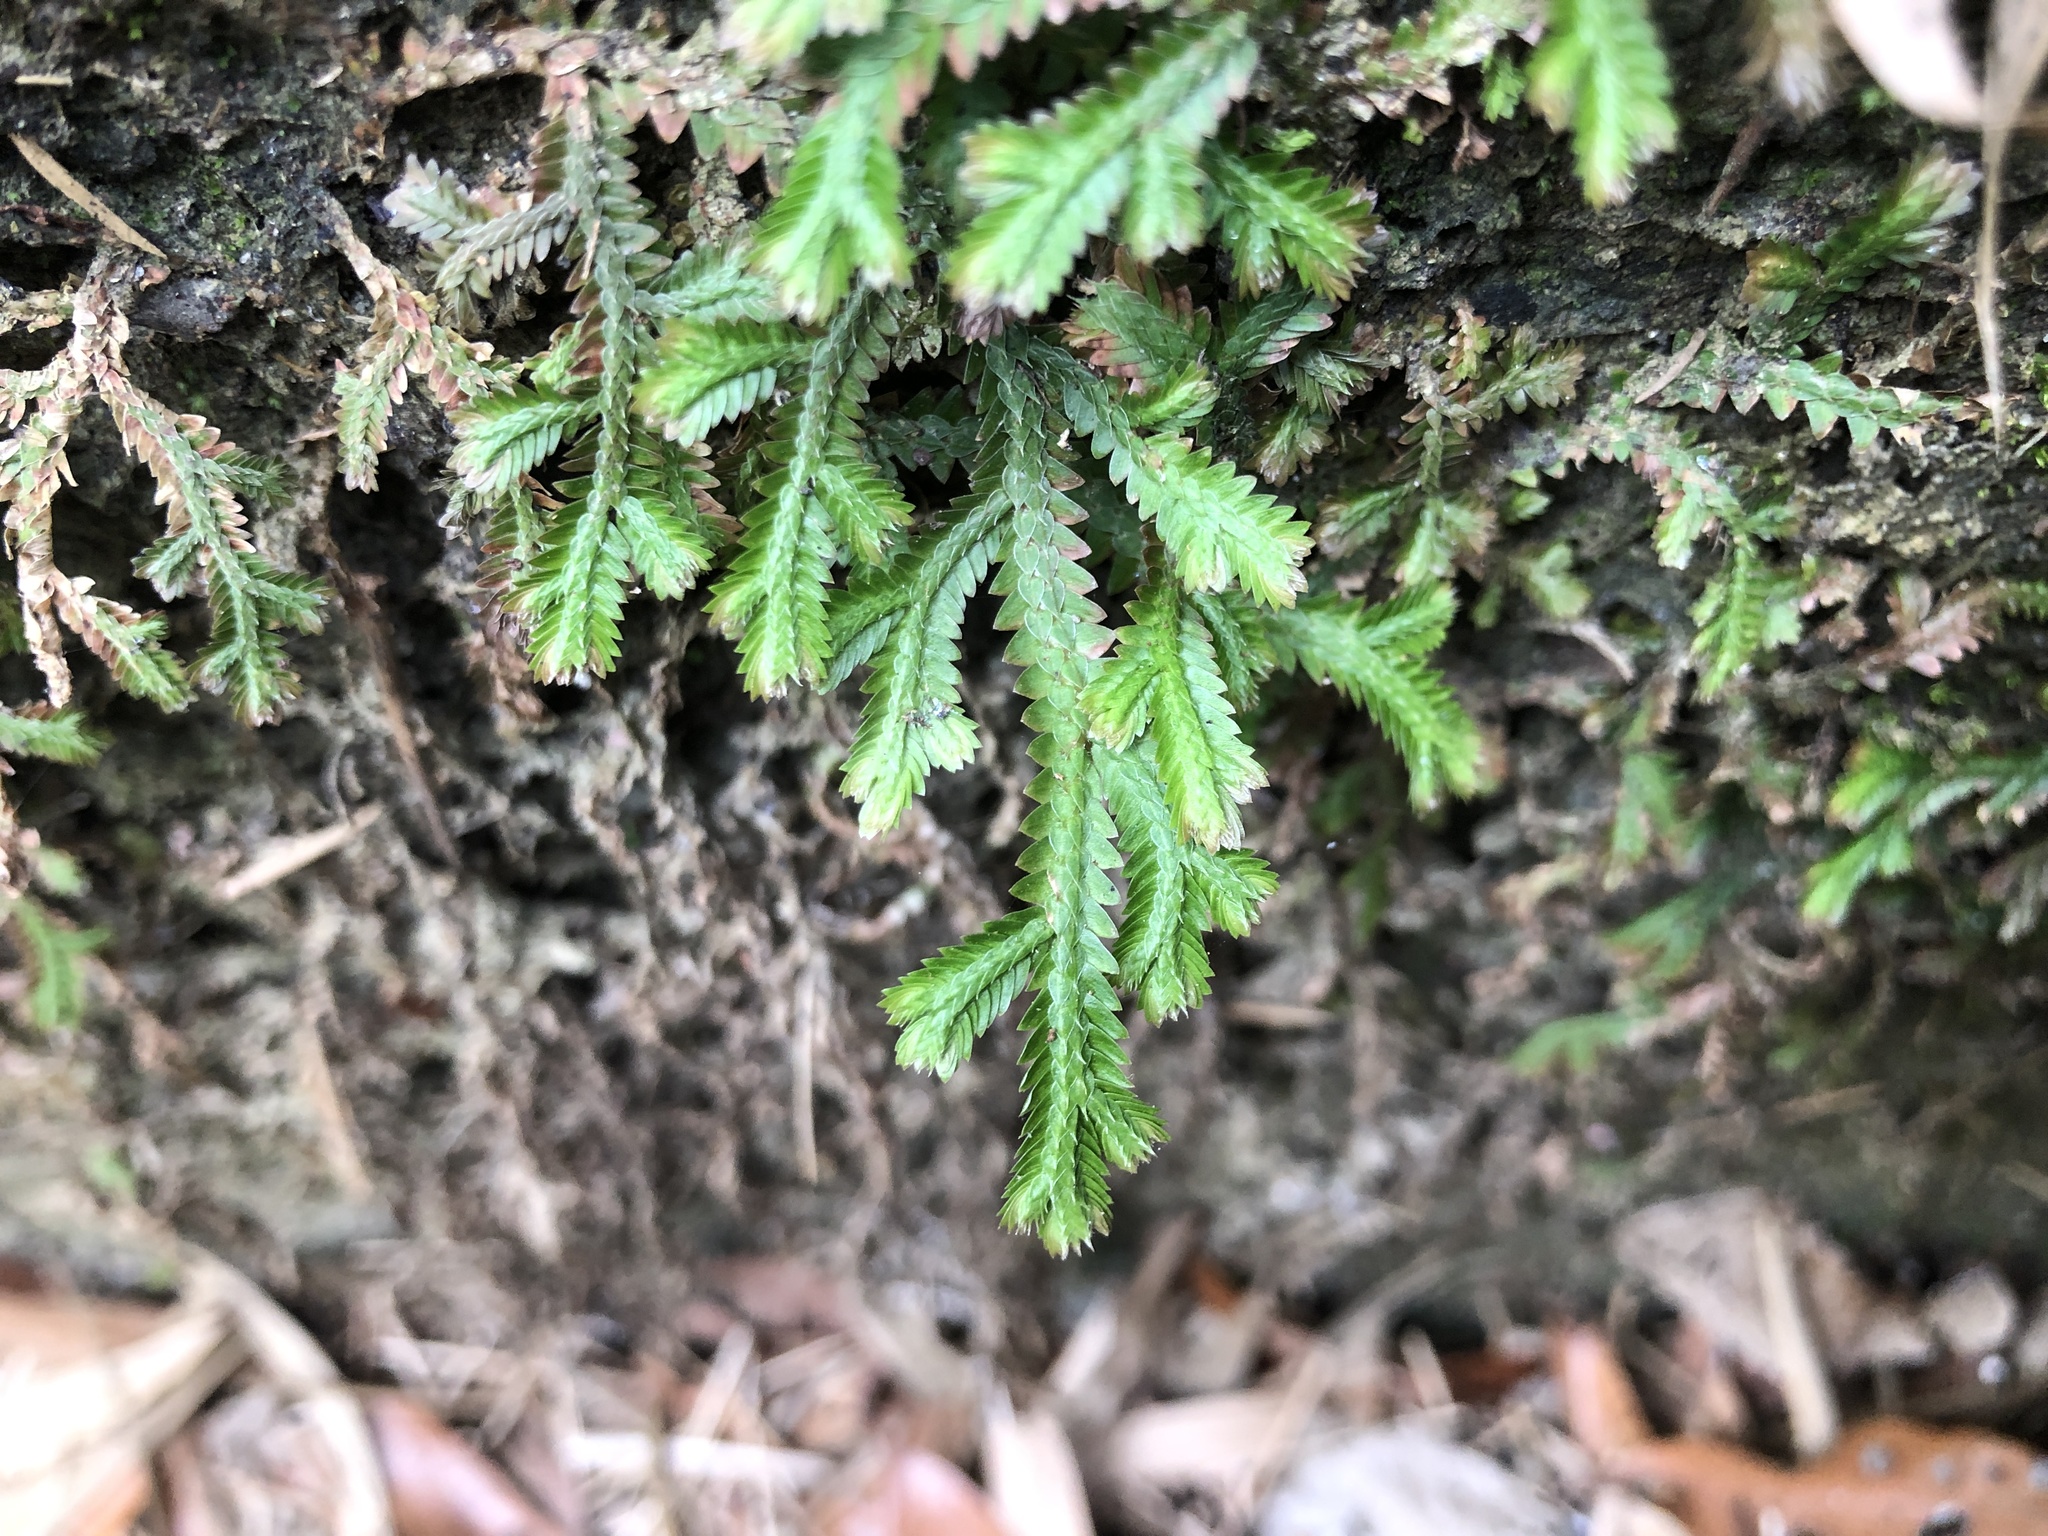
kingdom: Plantae
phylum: Tracheophyta
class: Lycopodiopsida
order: Selaginellales
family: Selaginellaceae
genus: Selaginella
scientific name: Selaginella repanda
